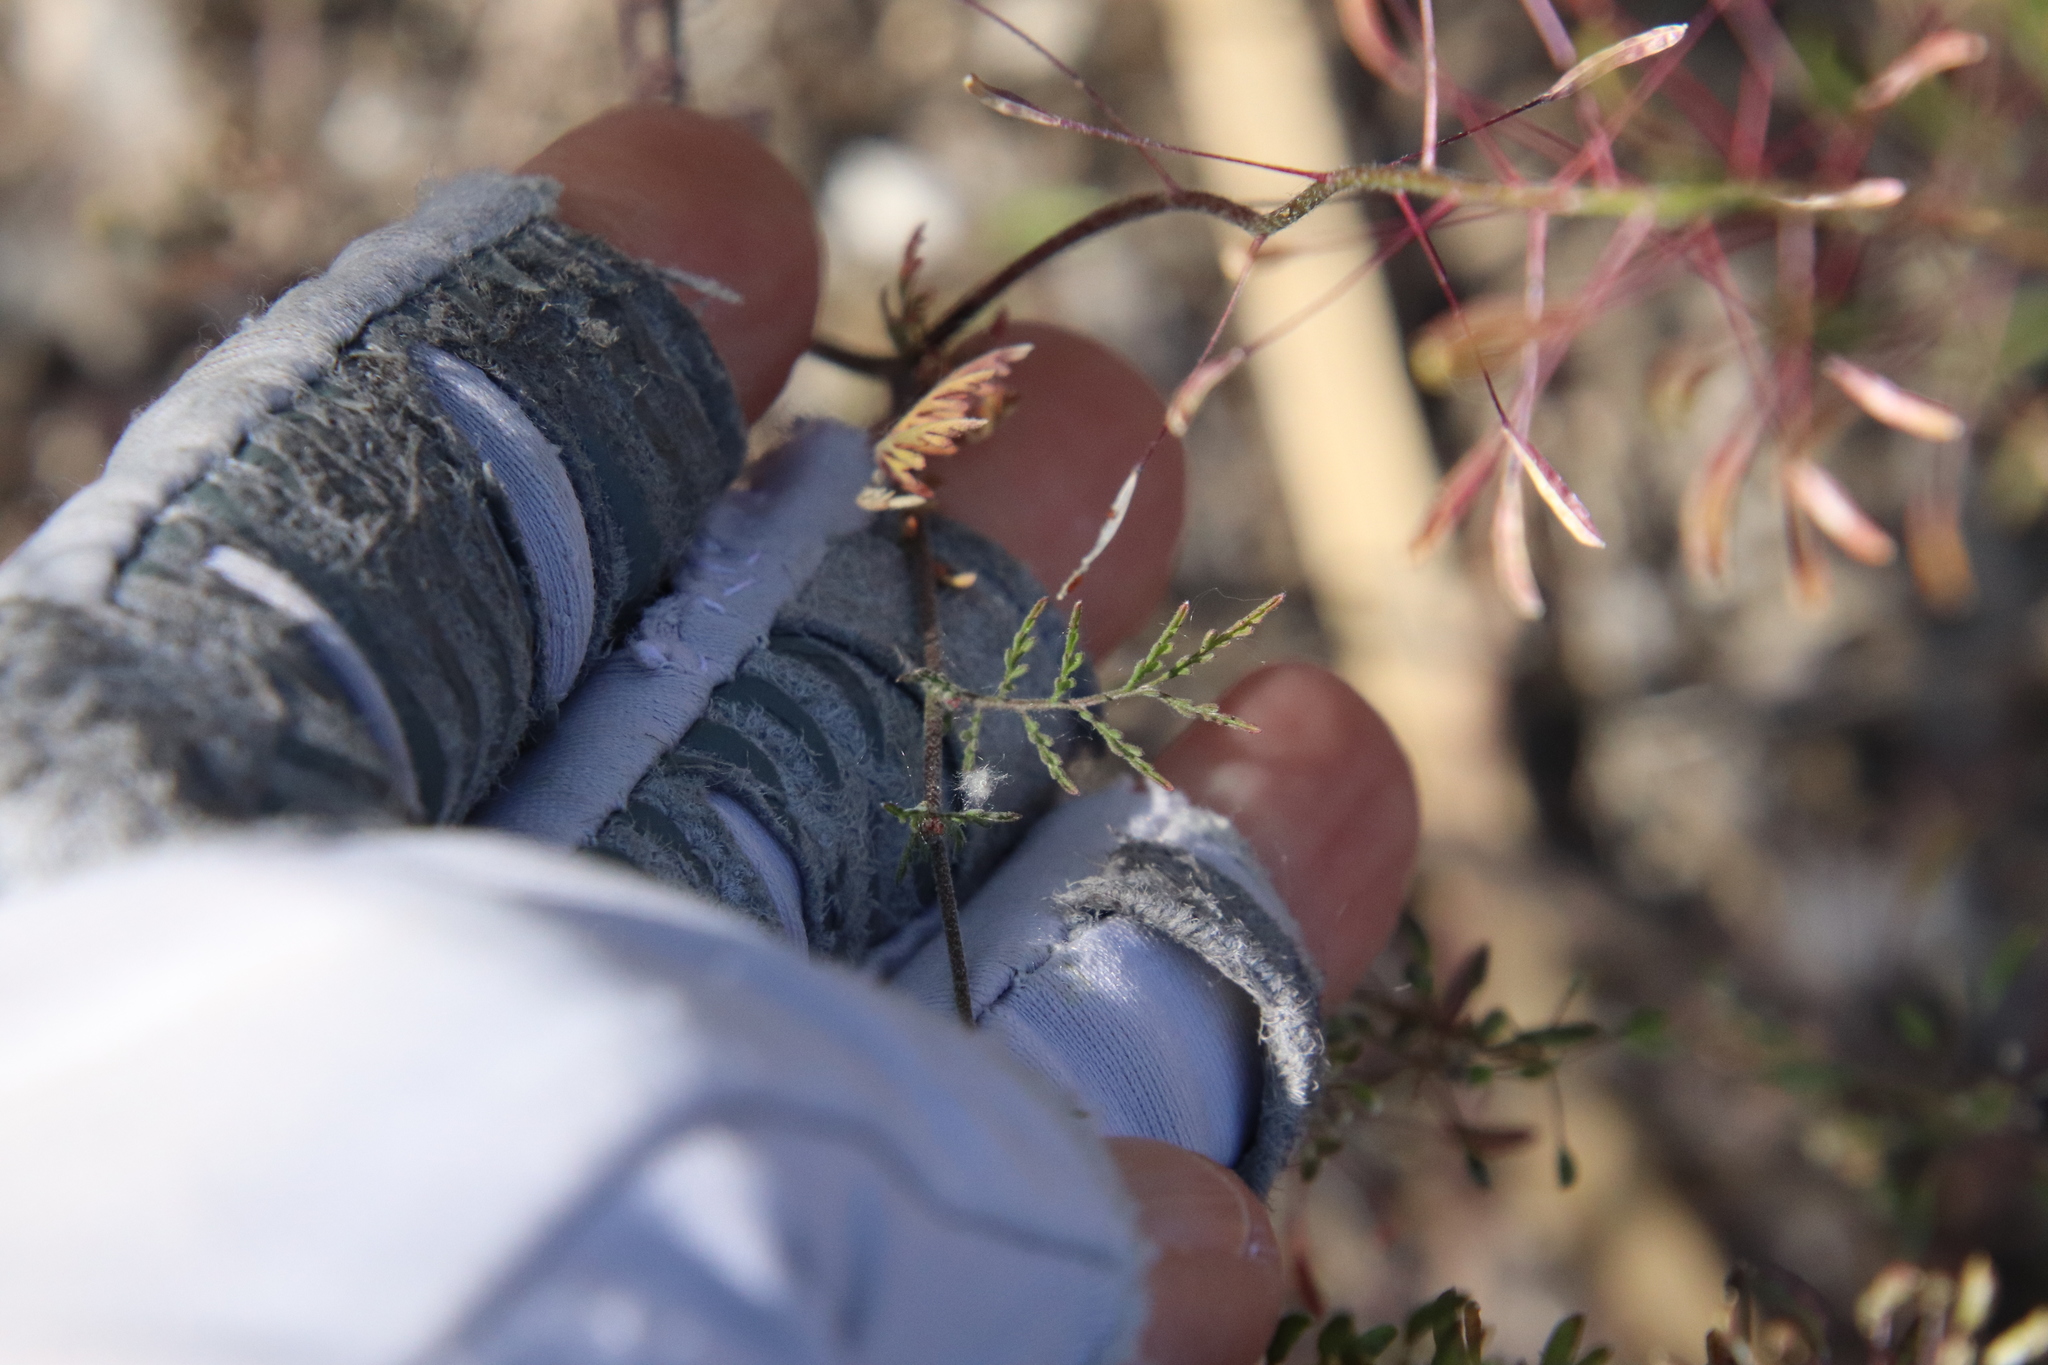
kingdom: Plantae
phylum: Tracheophyta
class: Magnoliopsida
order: Brassicales
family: Brassicaceae
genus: Descurainia
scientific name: Descurainia pinnata
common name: Western tansy mustard
